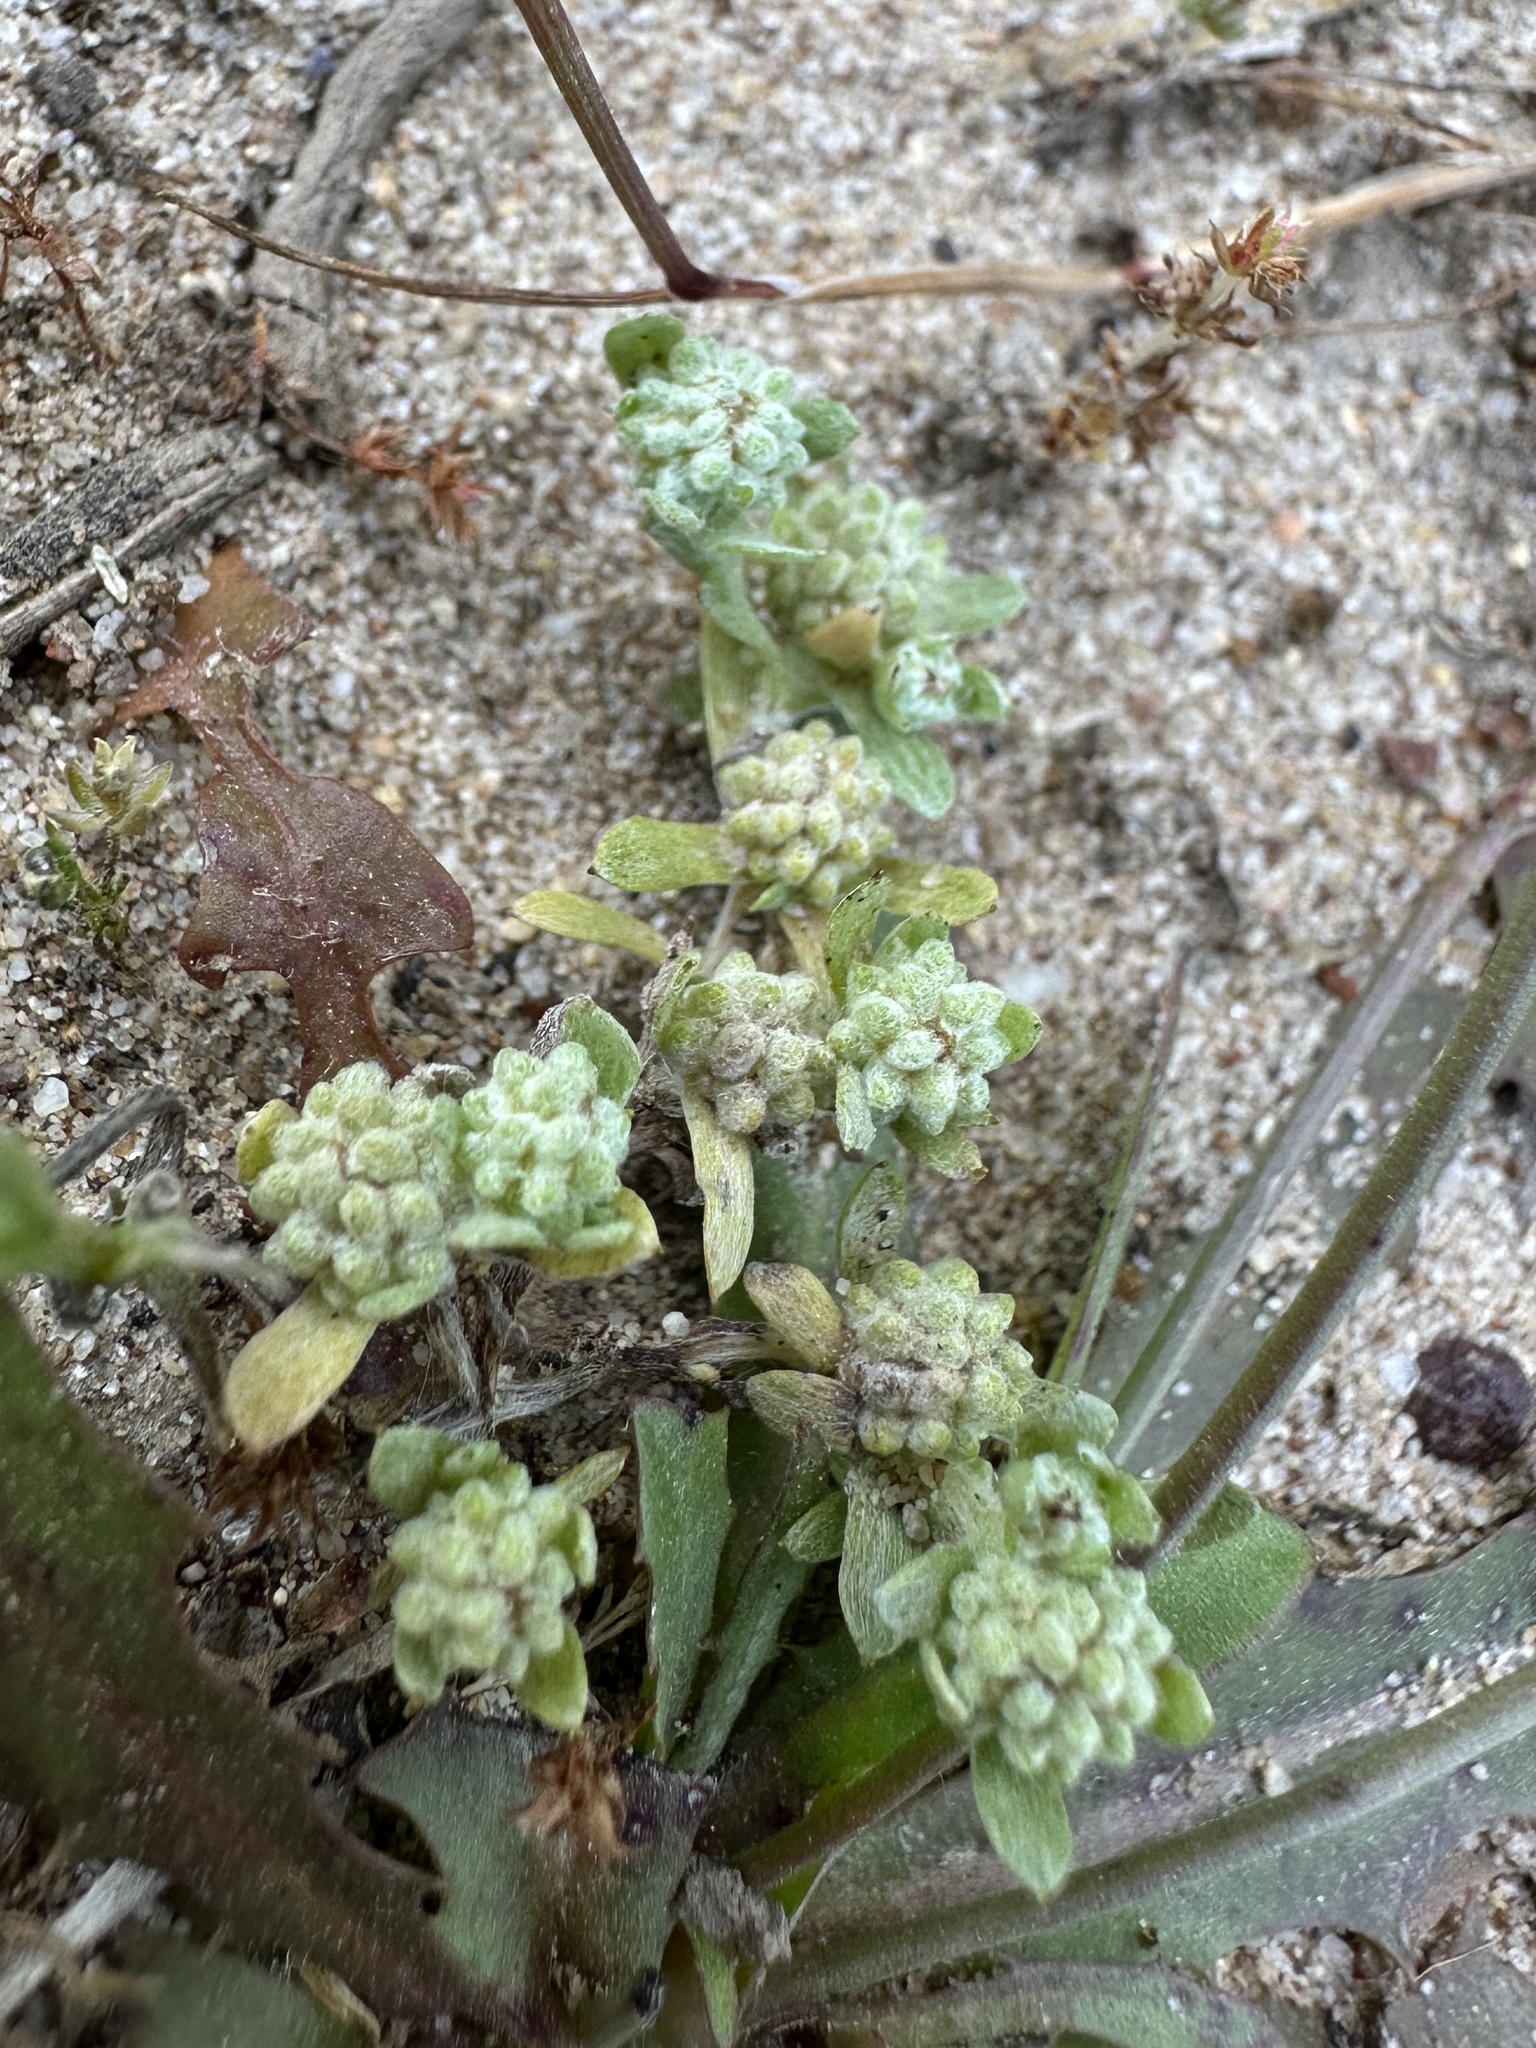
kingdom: Plantae
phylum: Tracheophyta
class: Magnoliopsida
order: Asterales
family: Asteraceae
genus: Psilocarphus
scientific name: Psilocarphus tenellus
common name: Slender woolly-marbles
